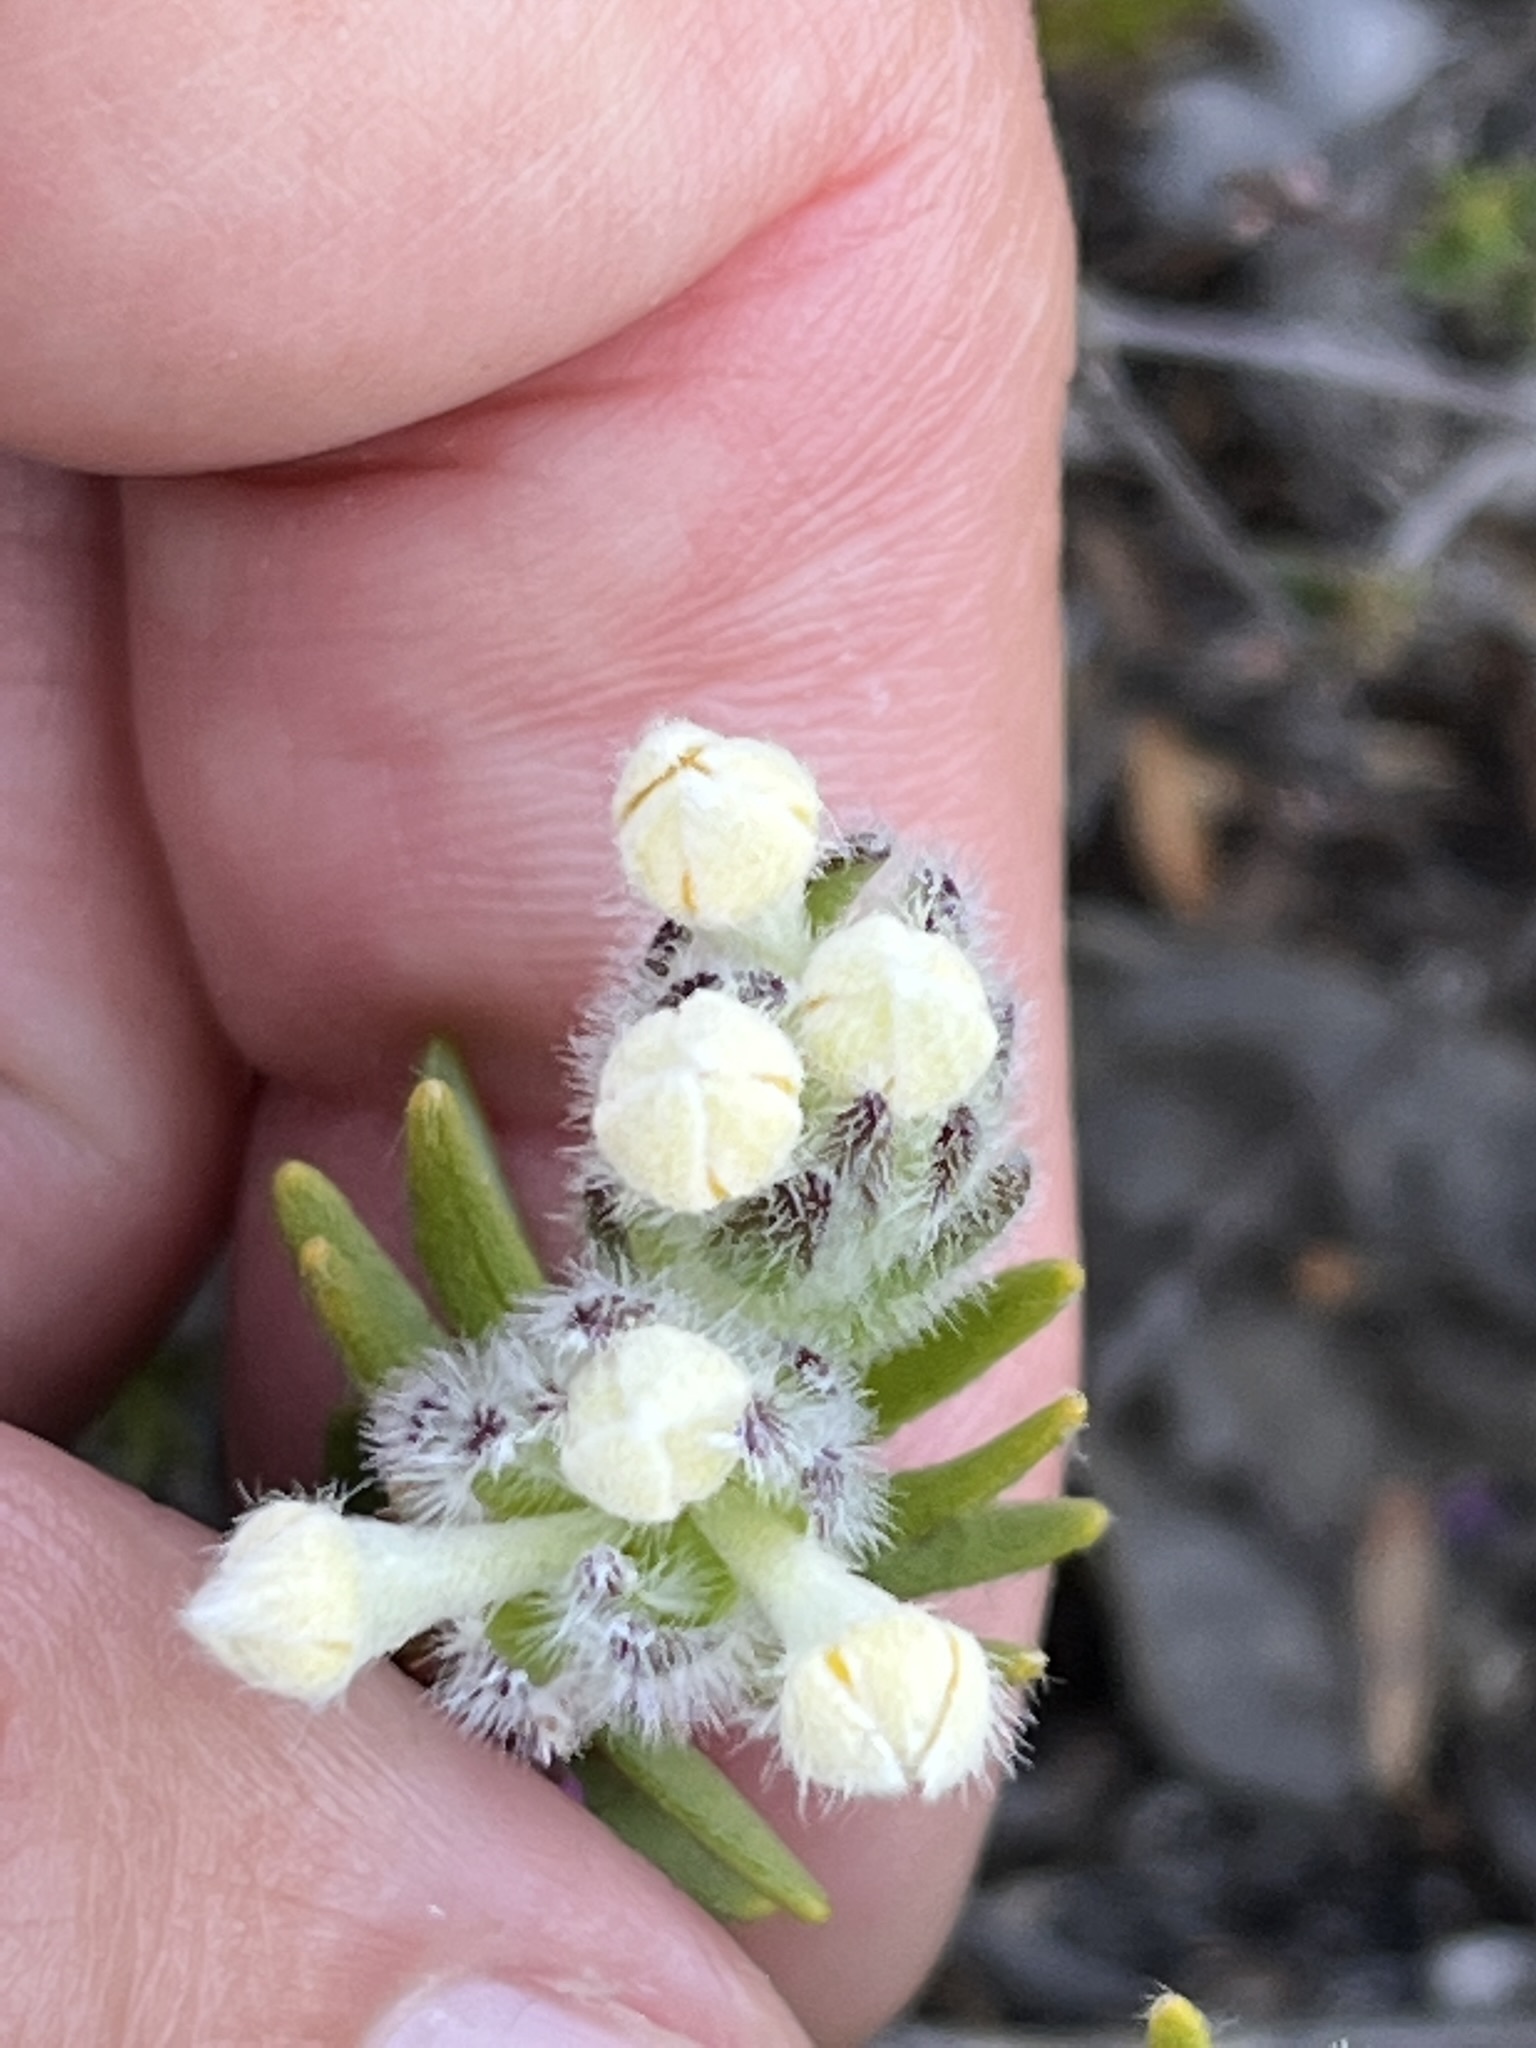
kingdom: Plantae
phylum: Tracheophyta
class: Magnoliopsida
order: Malvales
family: Thymelaeaceae
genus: Gnidia
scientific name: Gnidia nana
